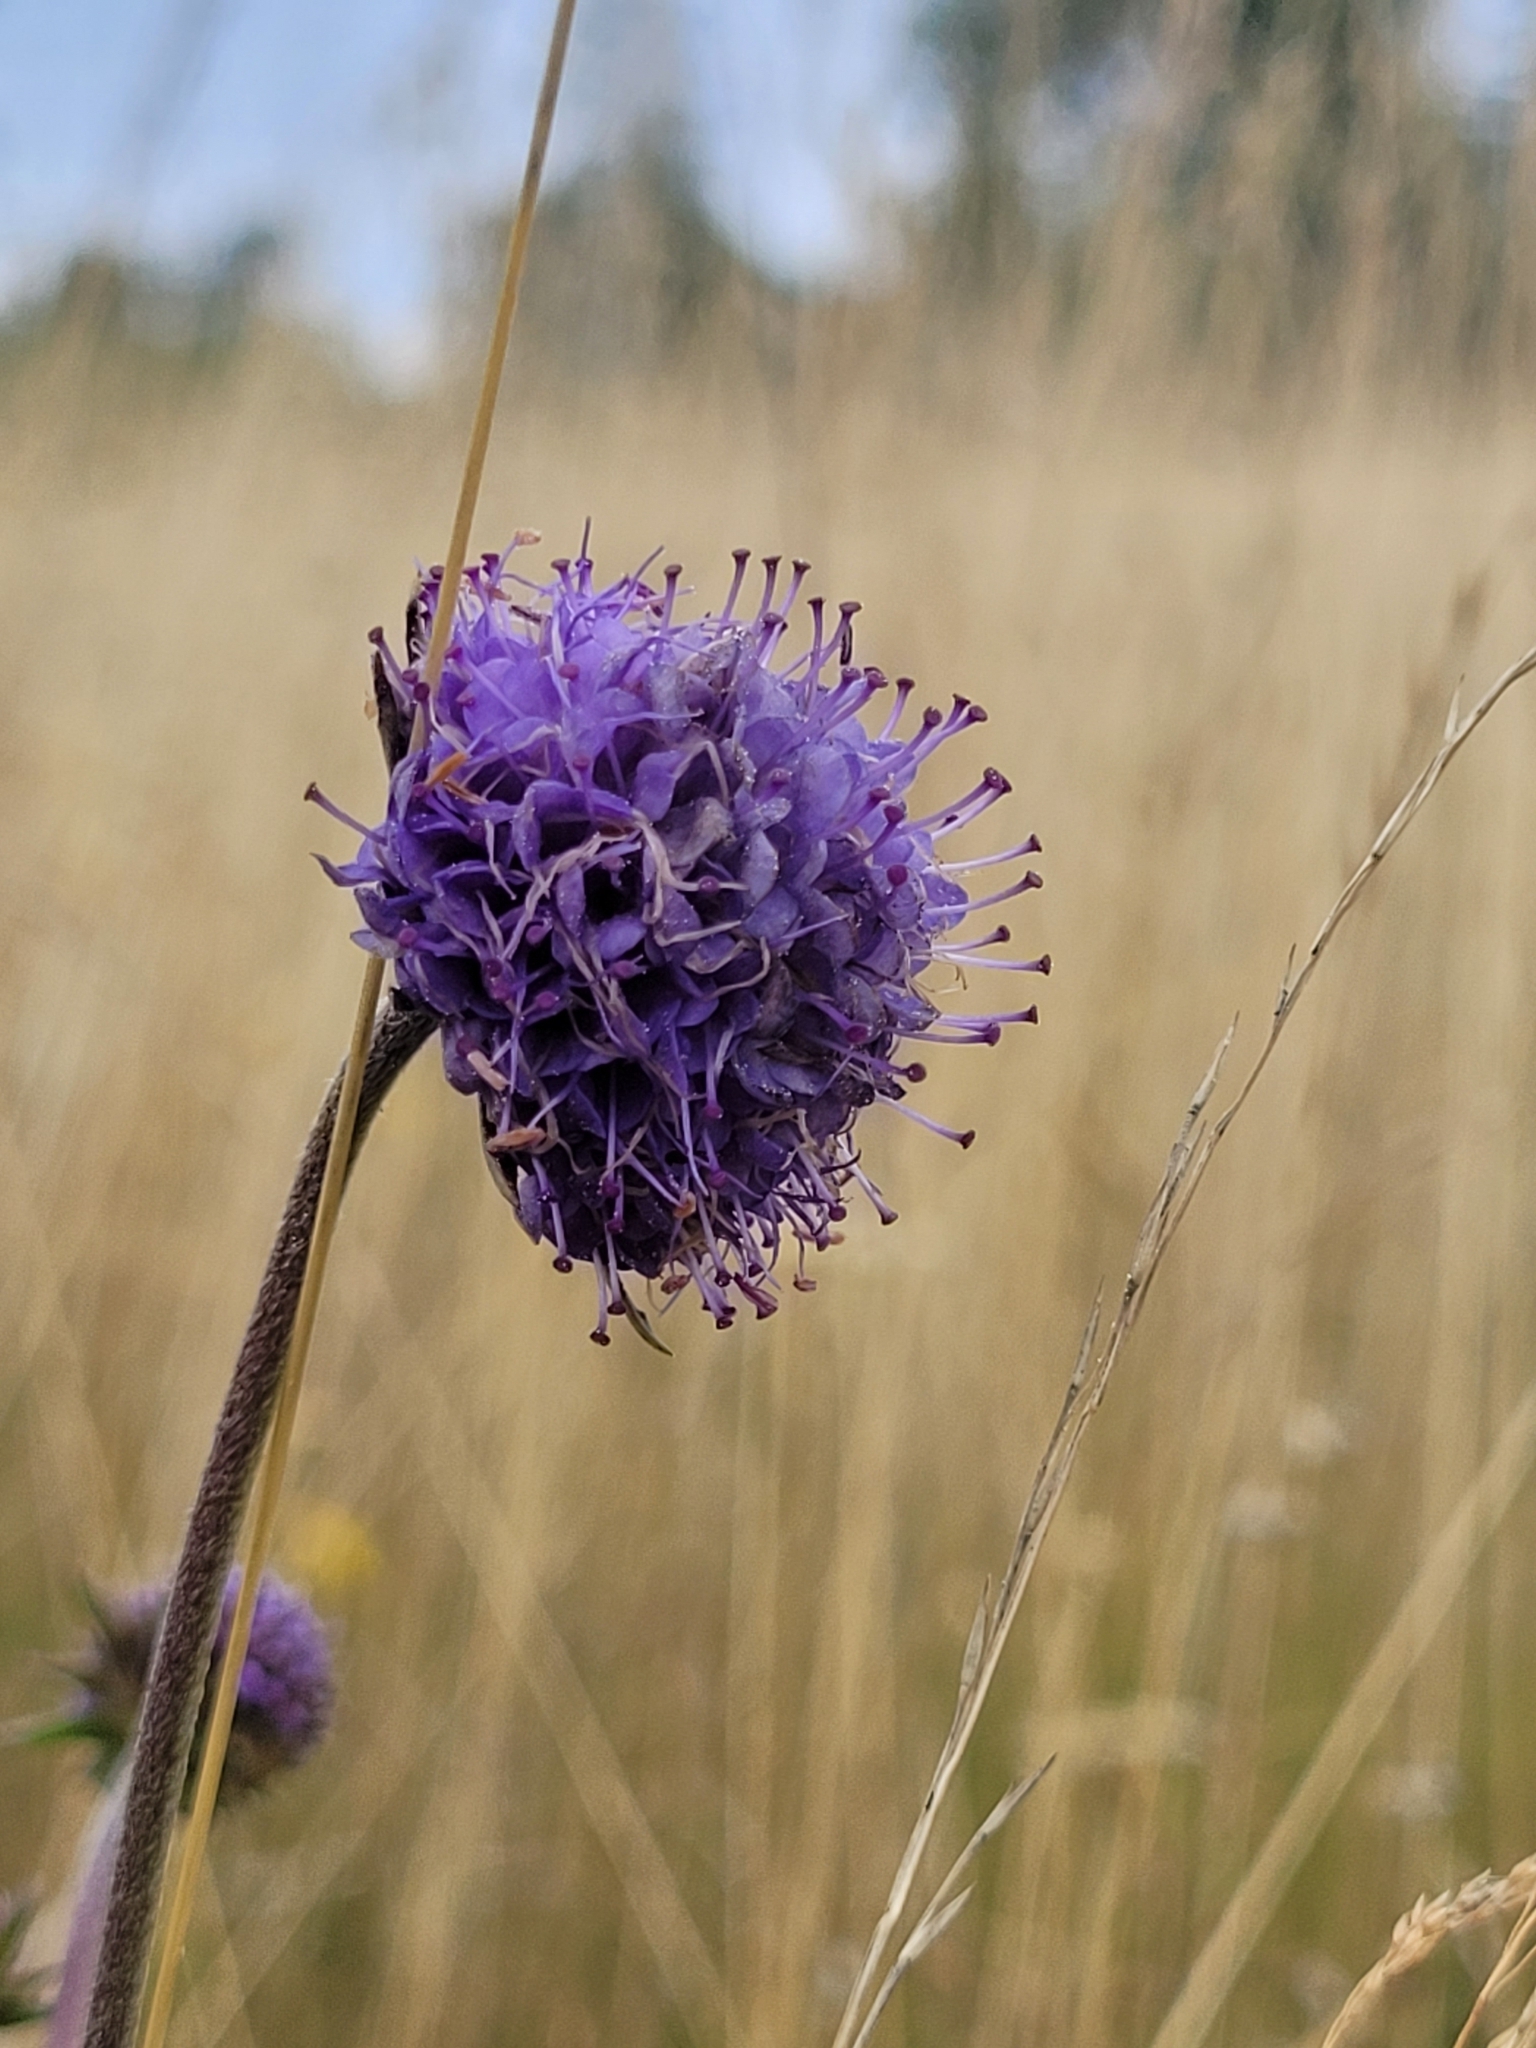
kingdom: Plantae
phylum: Tracheophyta
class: Magnoliopsida
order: Dipsacales
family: Caprifoliaceae
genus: Succisa
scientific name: Succisa pratensis
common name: Devil's-bit
